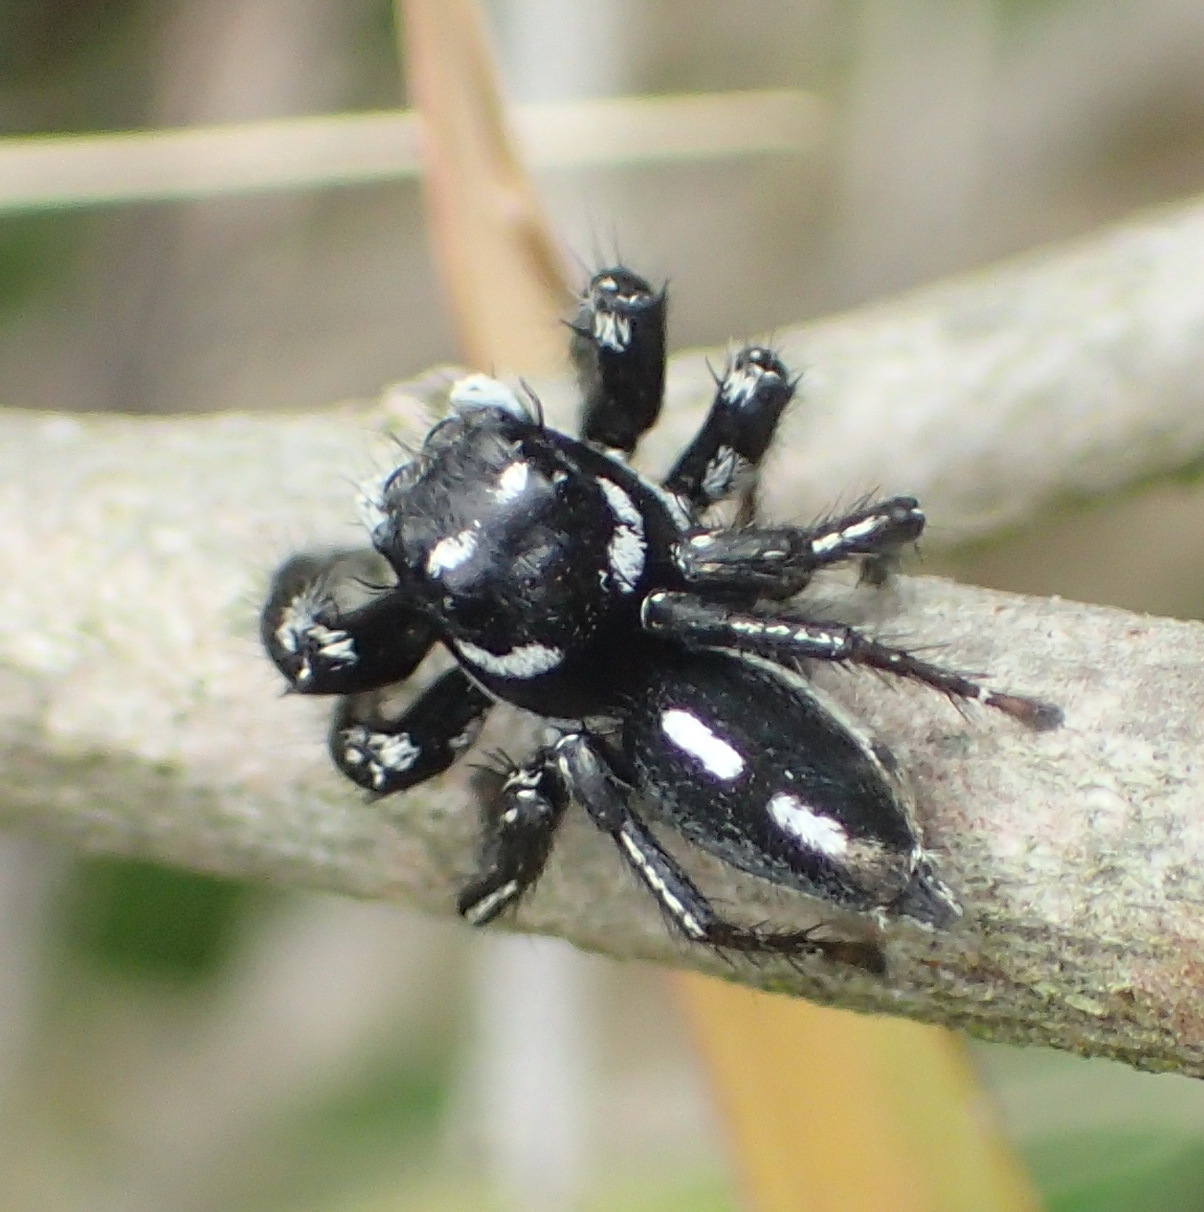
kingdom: Animalia
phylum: Arthropoda
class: Arachnida
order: Araneae
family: Salticidae
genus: Hyllus
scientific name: Hyllus argyrotoxus
